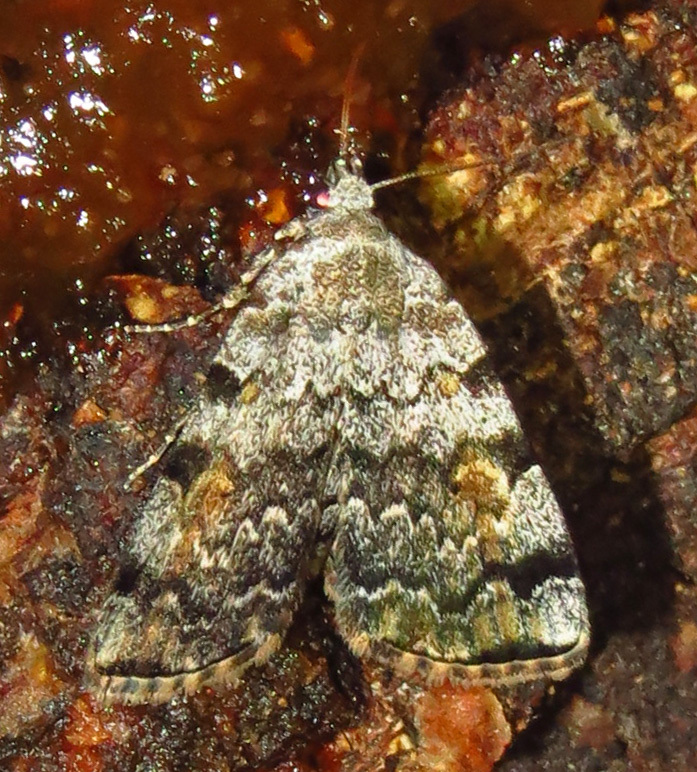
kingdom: Animalia
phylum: Arthropoda
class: Insecta
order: Lepidoptera
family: Erebidae
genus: Idia
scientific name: Idia americalis
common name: American idia moth
